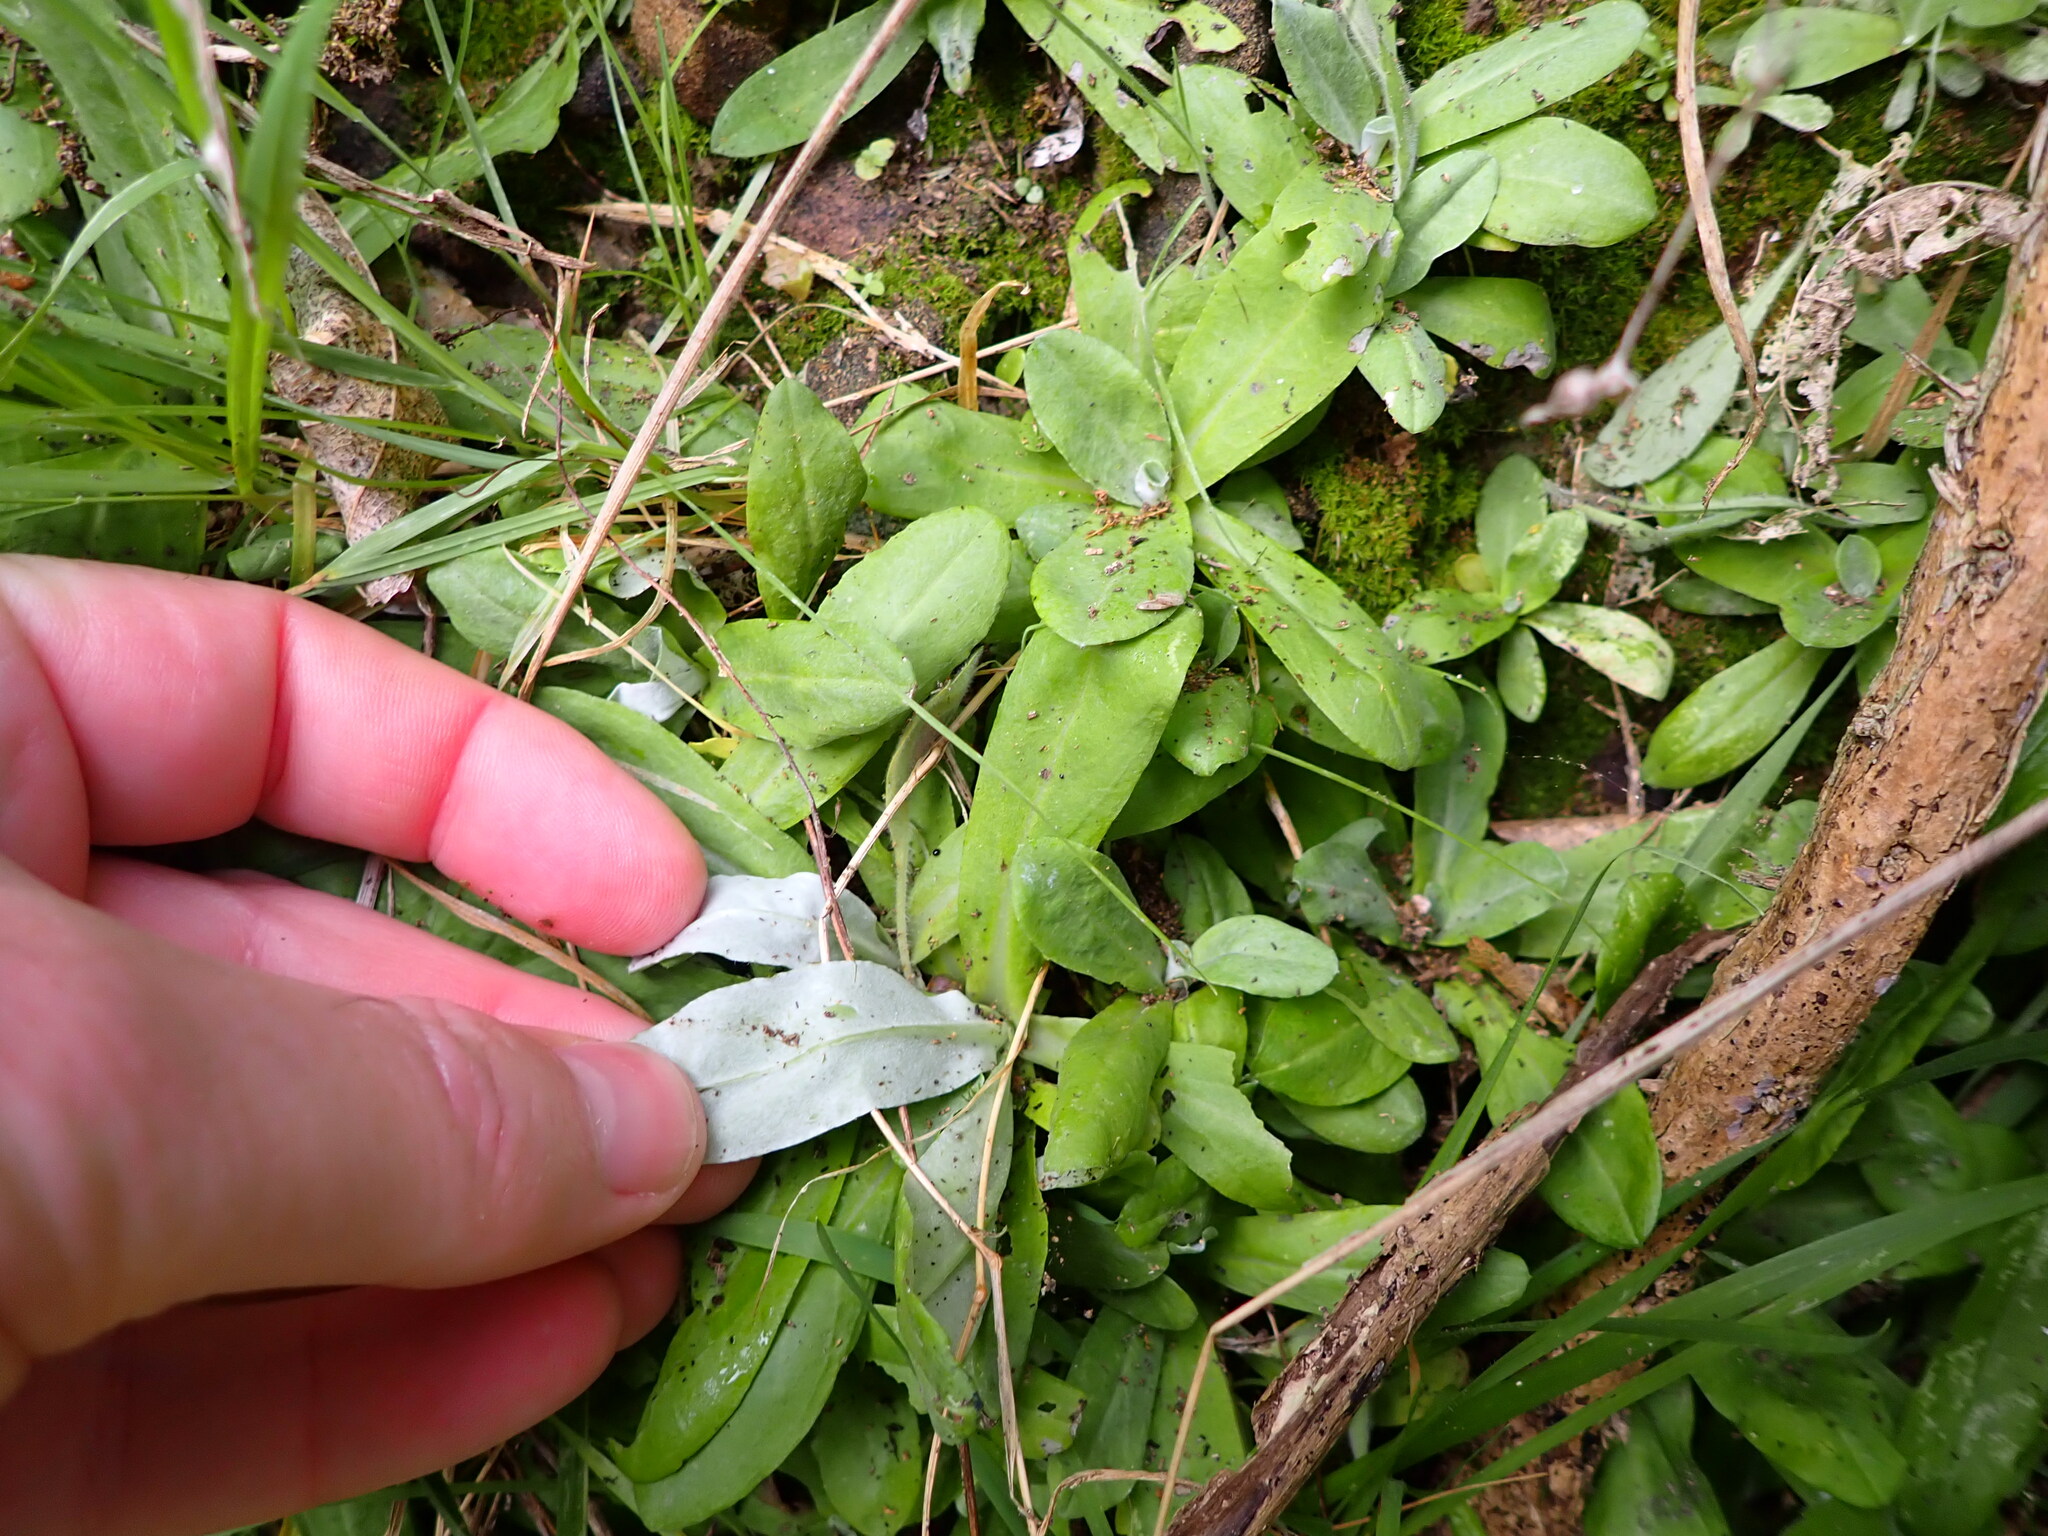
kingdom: Plantae
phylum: Tracheophyta
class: Magnoliopsida
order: Asterales
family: Asteraceae
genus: Gamochaeta
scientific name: Gamochaeta americana
